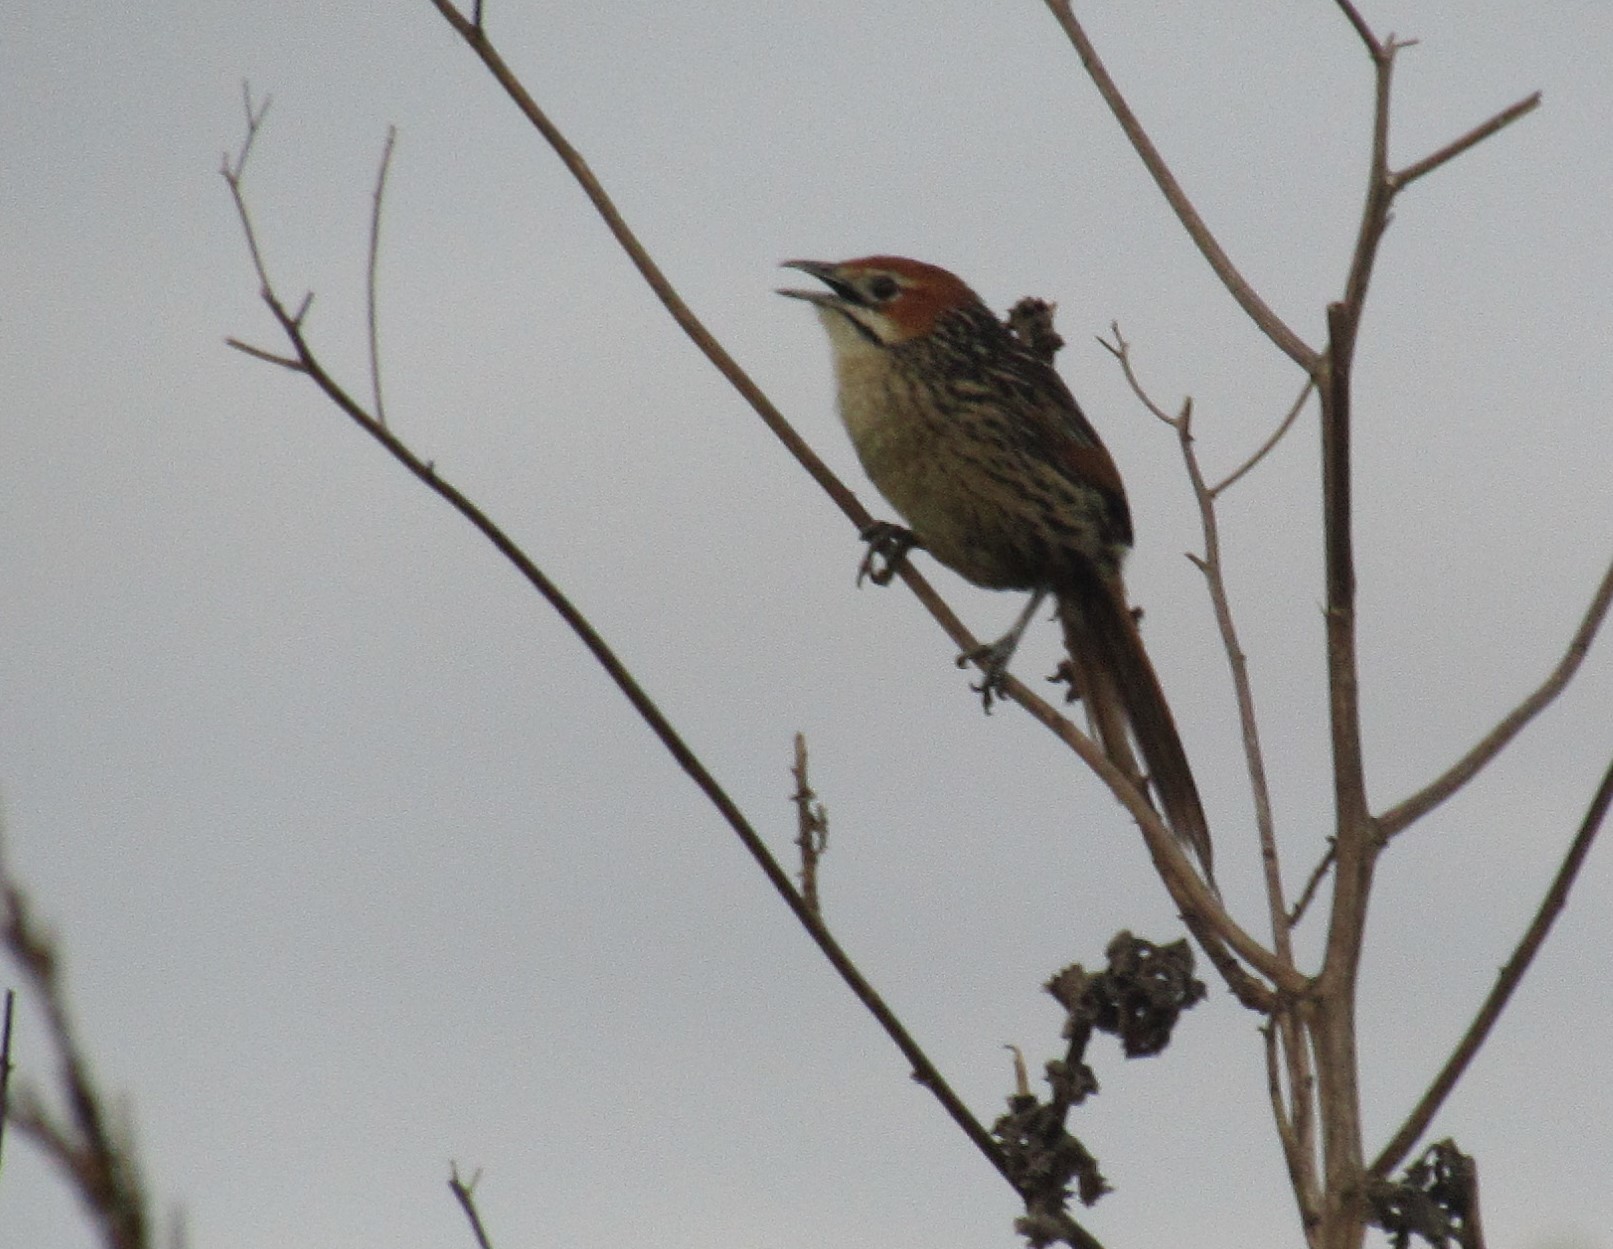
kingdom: Animalia
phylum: Chordata
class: Aves
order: Passeriformes
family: Macrosphenidae
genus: Sphenoeacus
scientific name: Sphenoeacus afer
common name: Cape grassbird
